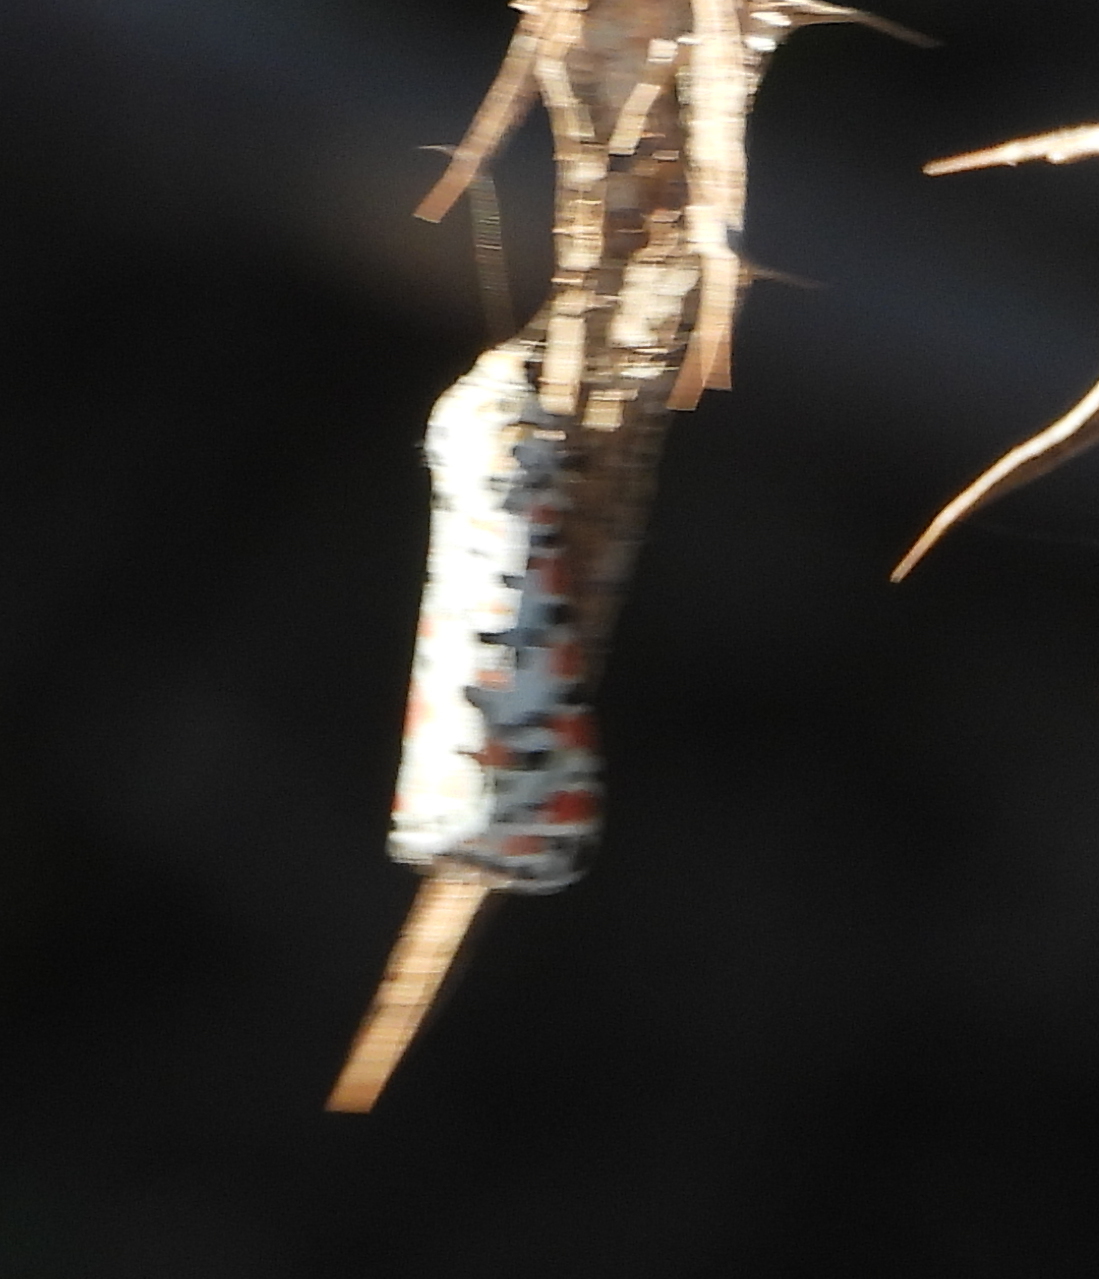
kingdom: Animalia
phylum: Arthropoda
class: Insecta
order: Lepidoptera
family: Erebidae
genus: Utetheisa
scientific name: Utetheisa pulchella
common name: Crimson speckled
